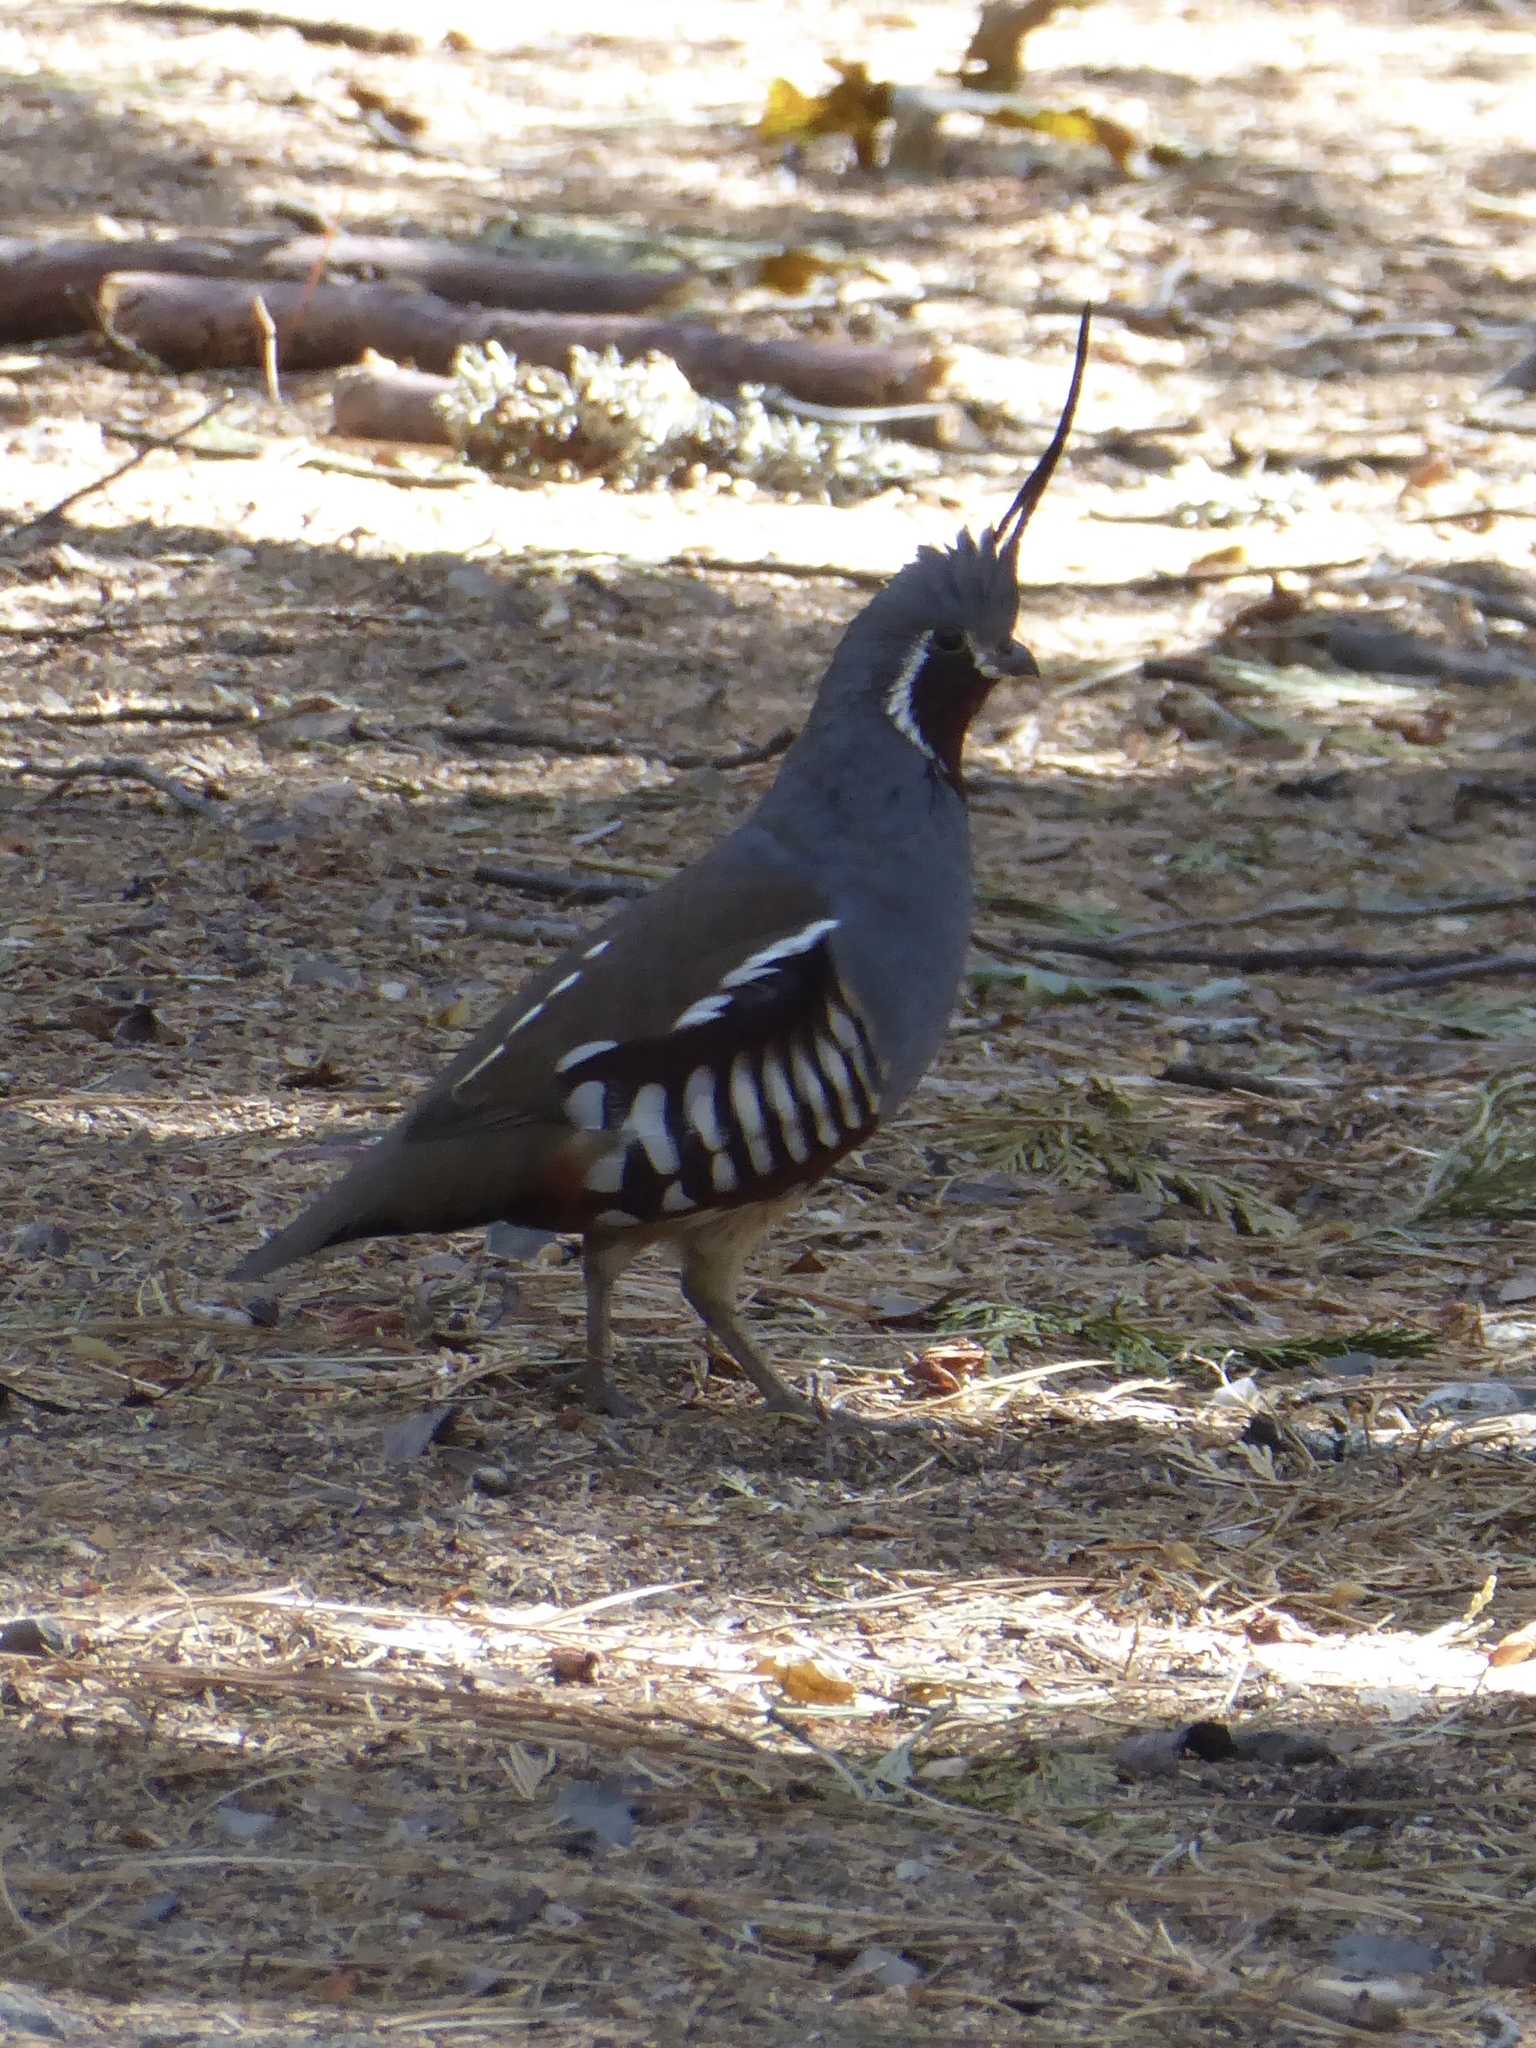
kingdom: Animalia
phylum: Chordata
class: Aves
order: Galliformes
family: Odontophoridae
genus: Oreortyx
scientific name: Oreortyx pictus
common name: Mountain quail
